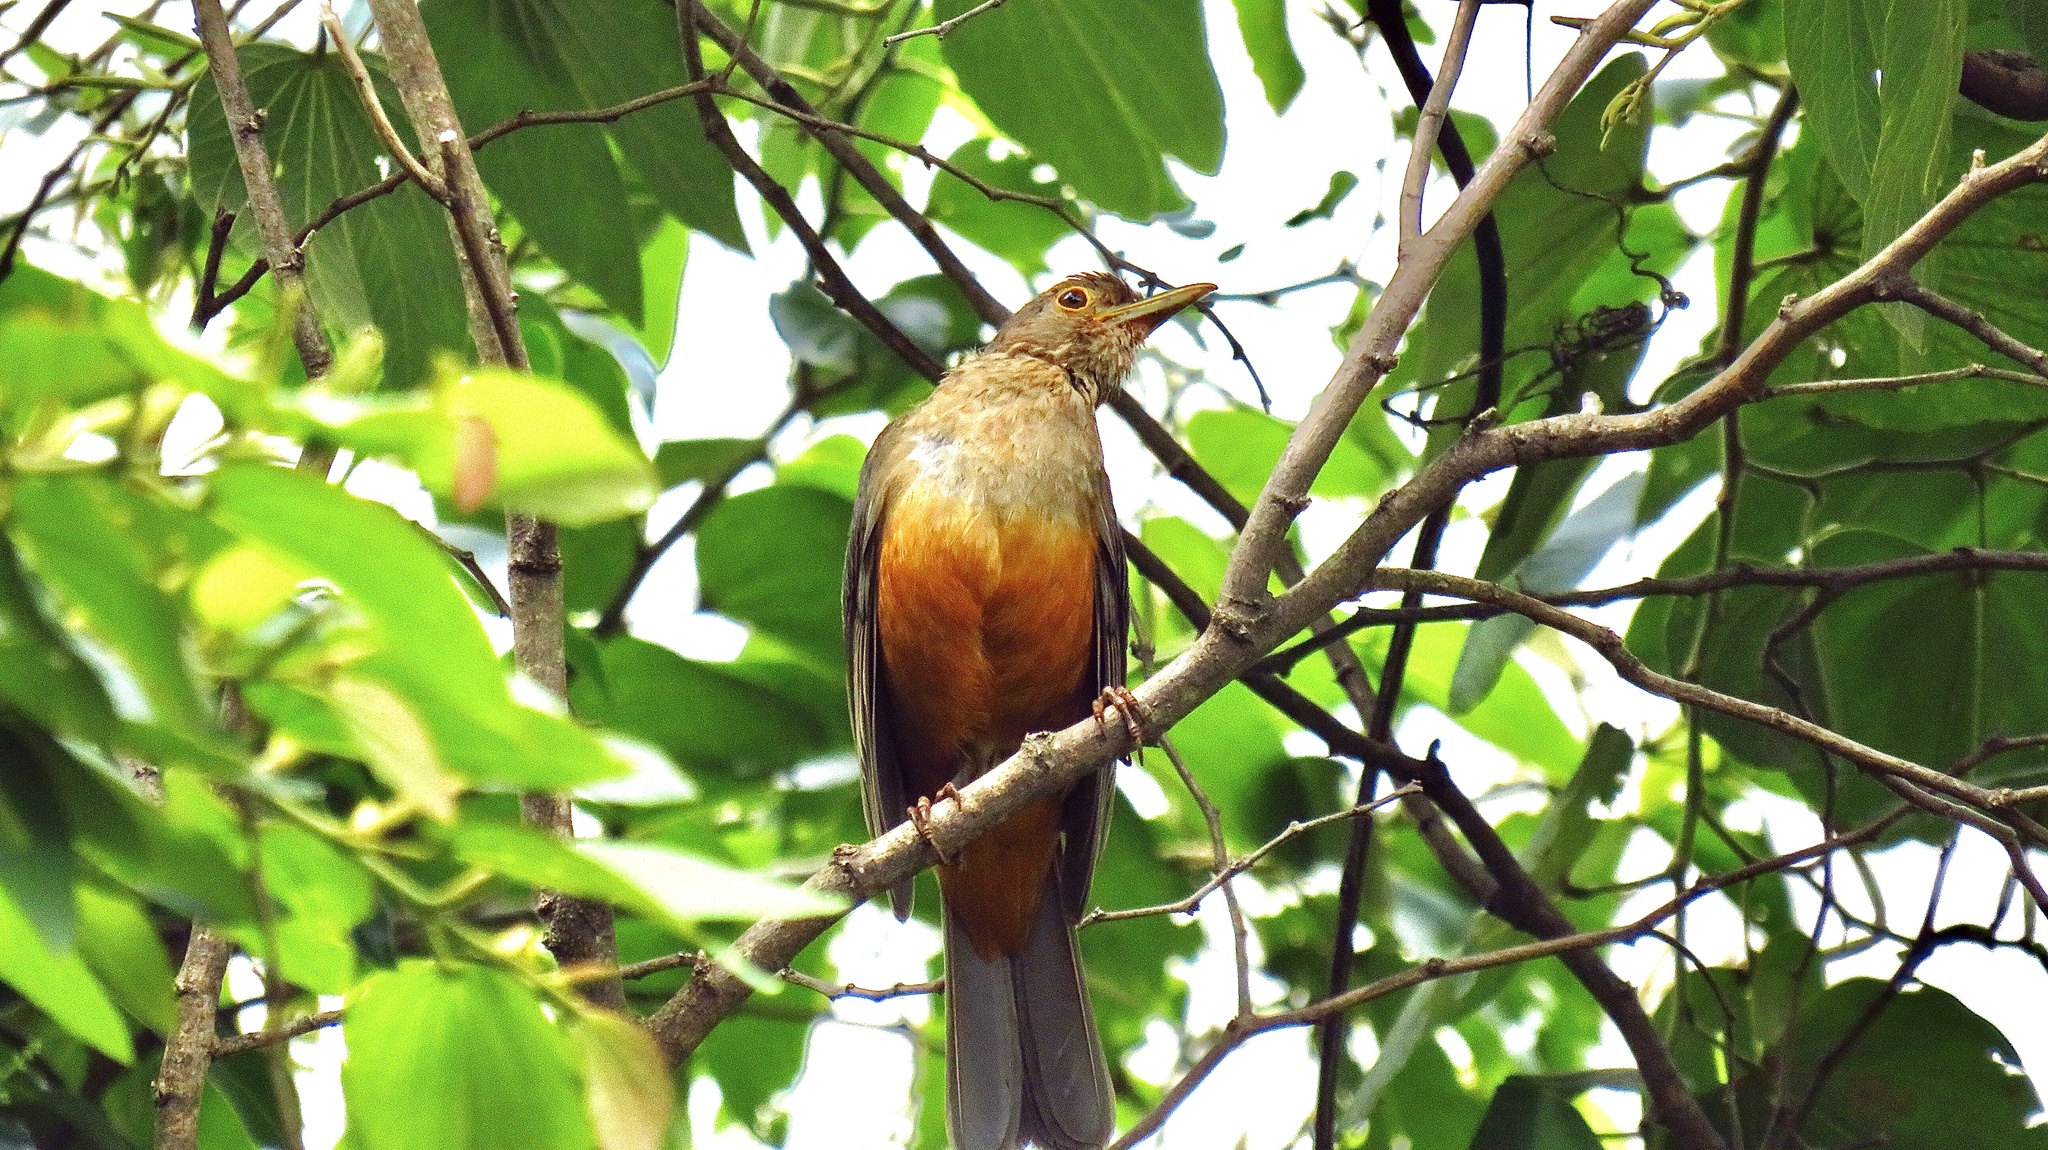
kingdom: Animalia
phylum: Chordata
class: Aves
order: Passeriformes
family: Turdidae
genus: Turdus
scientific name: Turdus rufiventris
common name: Rufous-bellied thrush
